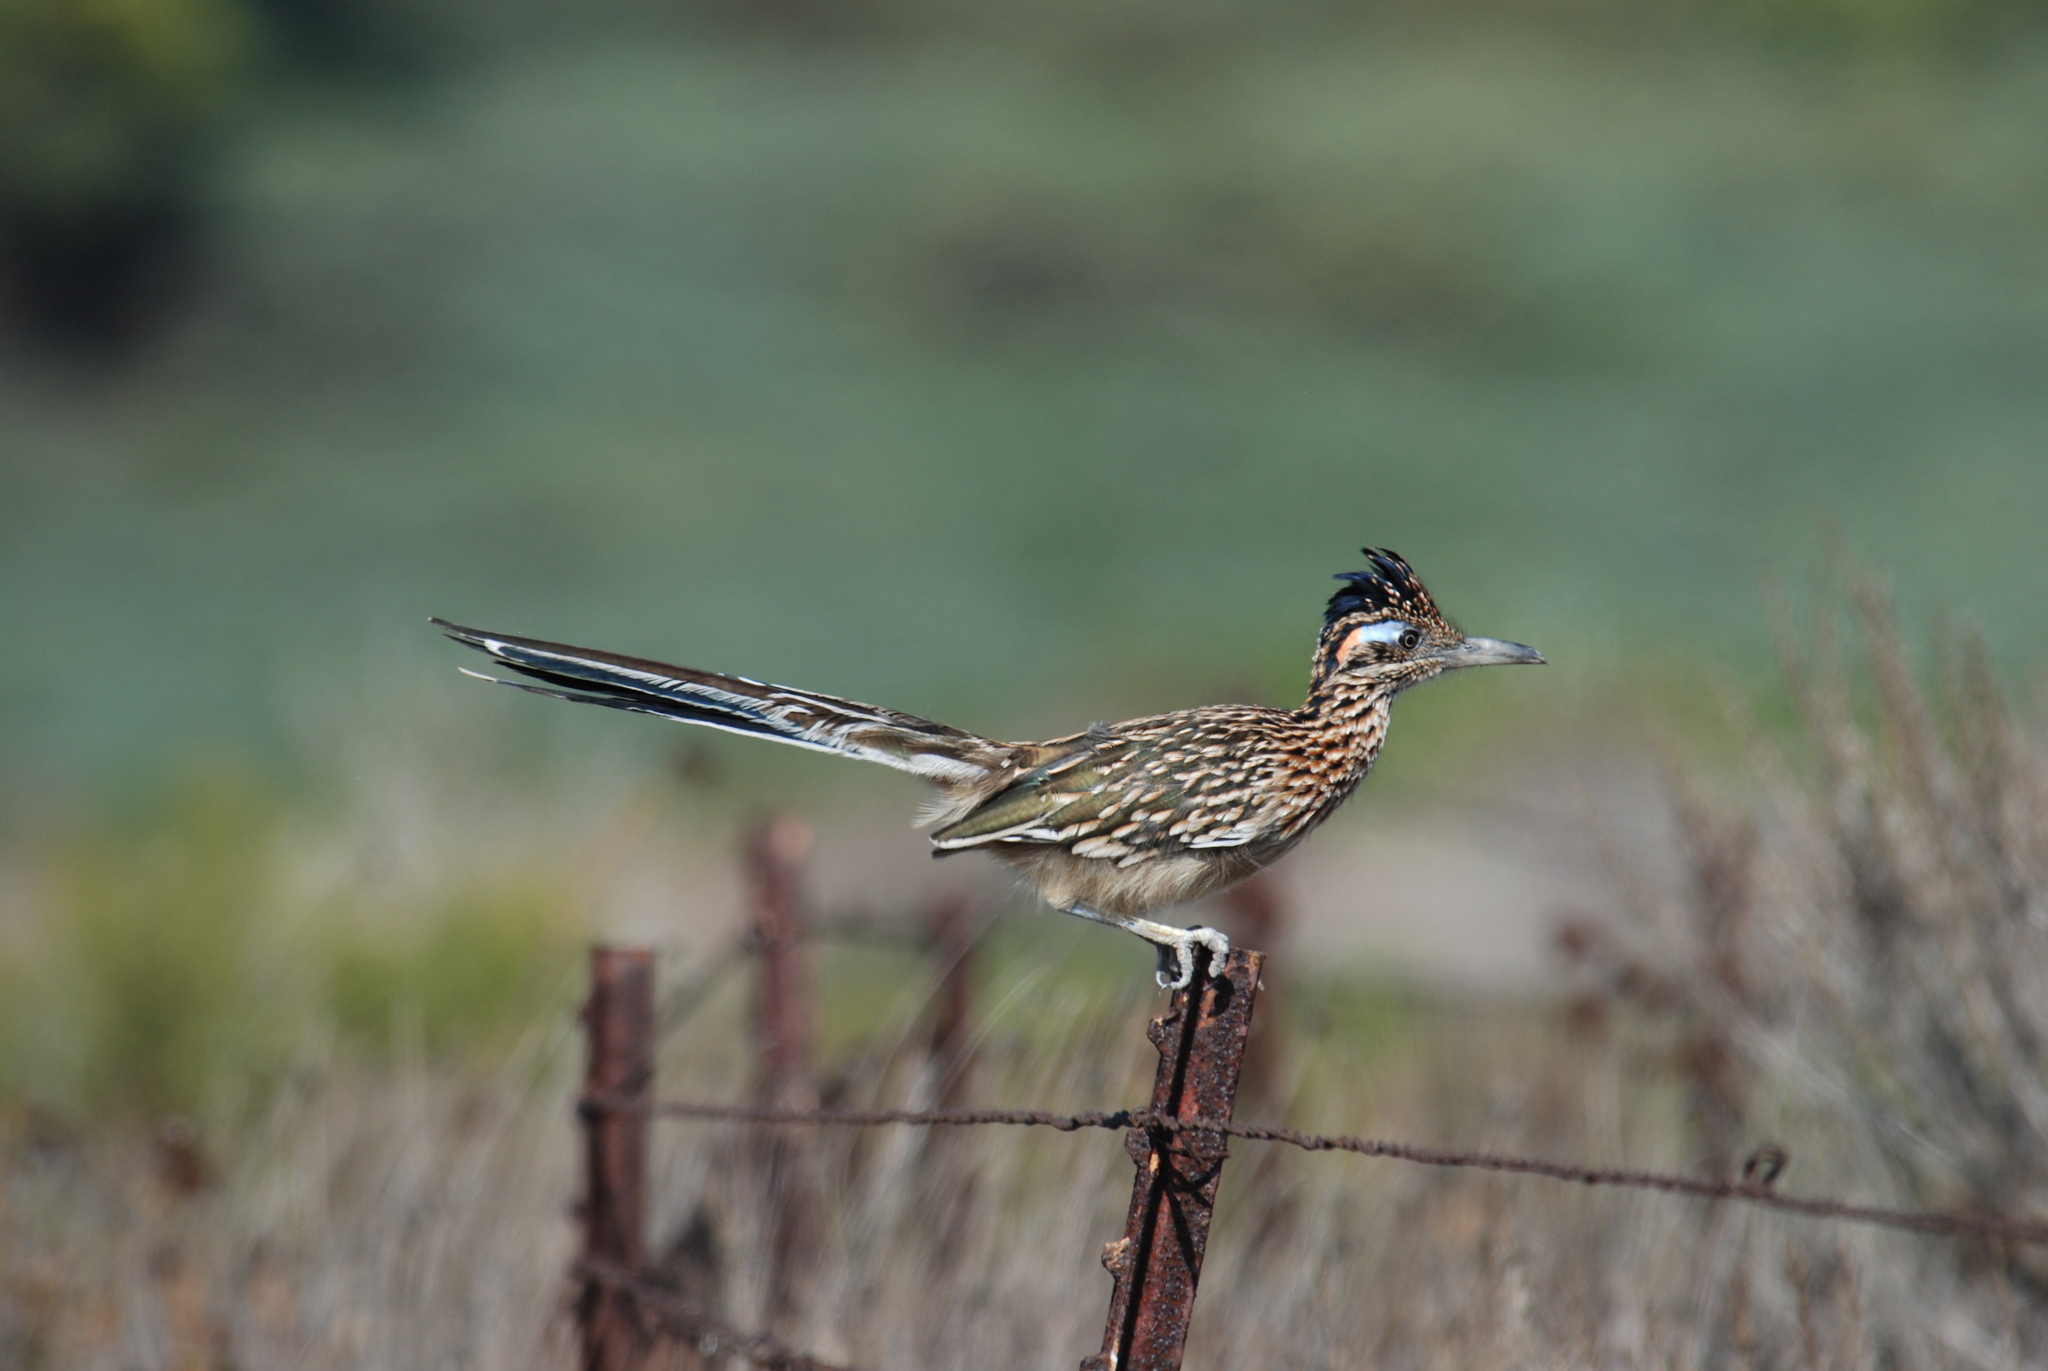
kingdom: Animalia
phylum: Chordata
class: Aves
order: Cuculiformes
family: Cuculidae
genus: Geococcyx
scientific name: Geococcyx californianus
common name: Greater roadrunner
